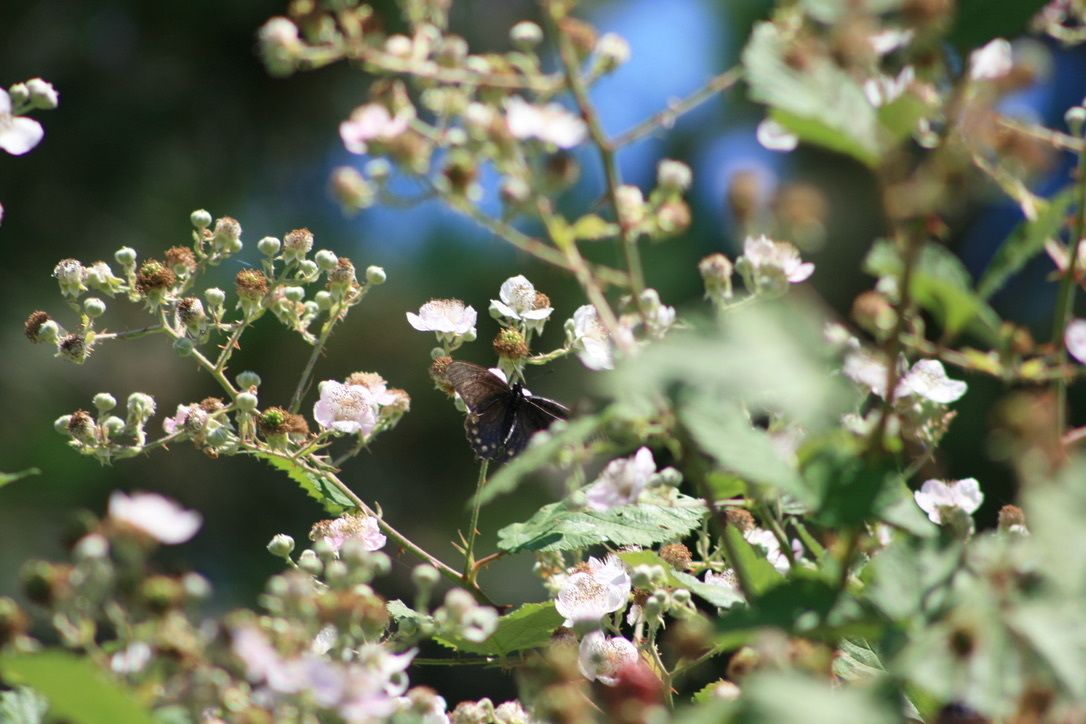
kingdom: Animalia
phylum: Arthropoda
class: Insecta
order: Lepidoptera
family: Papilionidae
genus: Battus
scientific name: Battus philenor
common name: Pipevine swallowtail
